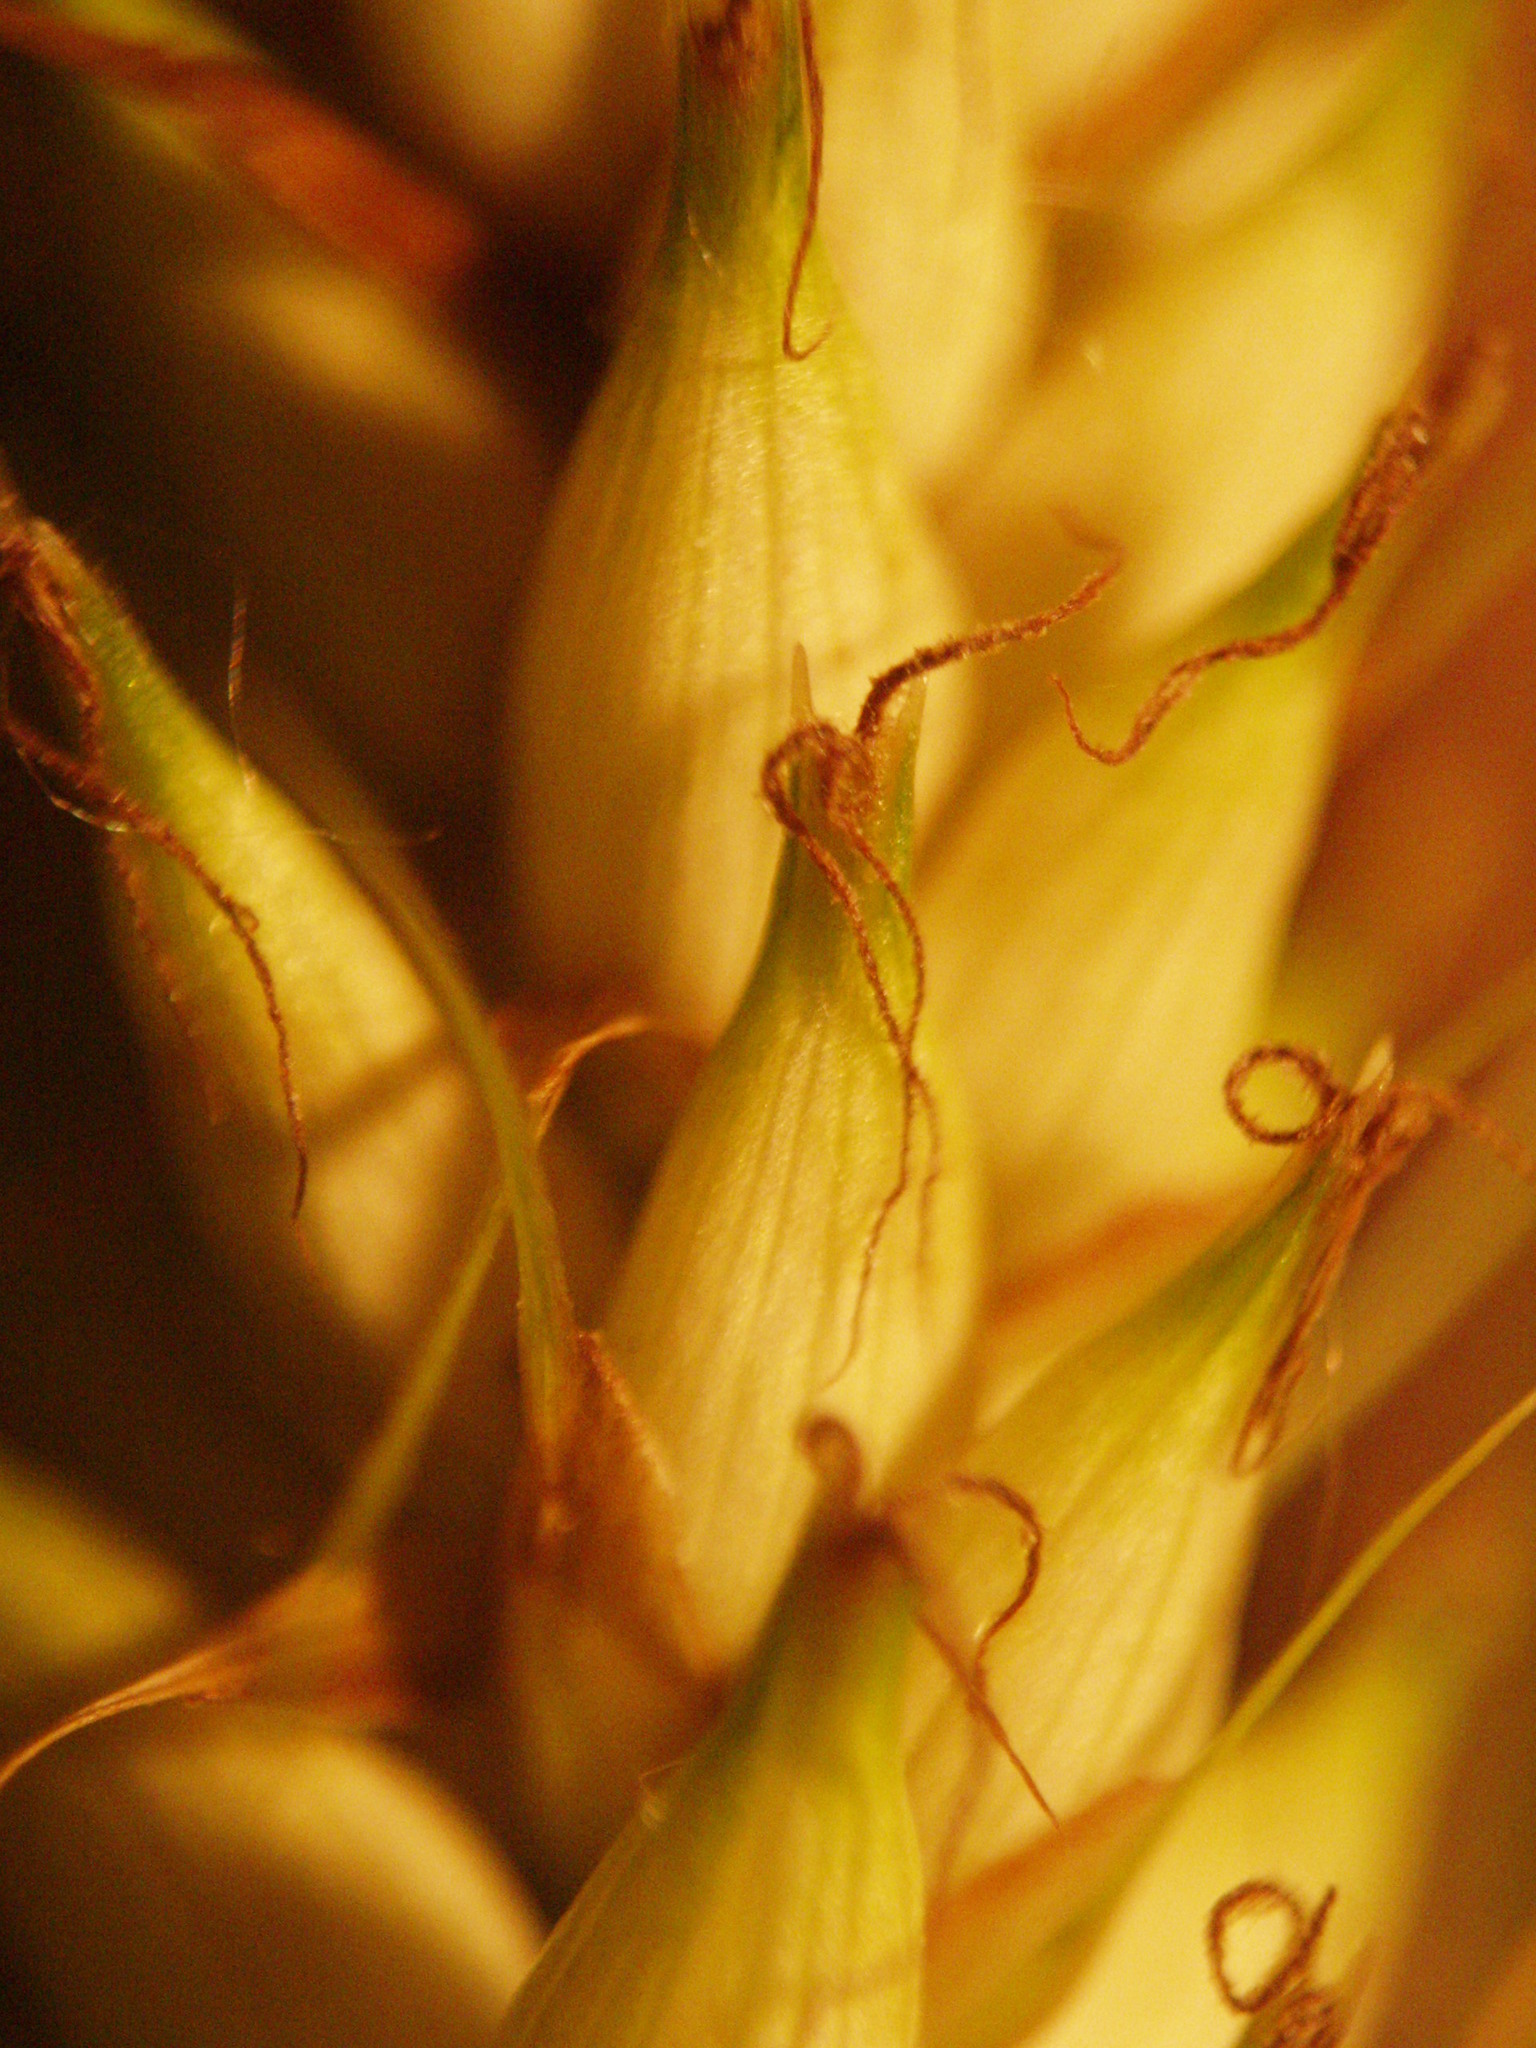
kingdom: Plantae
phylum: Tracheophyta
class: Liliopsida
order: Poales
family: Cyperaceae
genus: Carex
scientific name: Carex hyalinolepis
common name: Shoreline sedge
